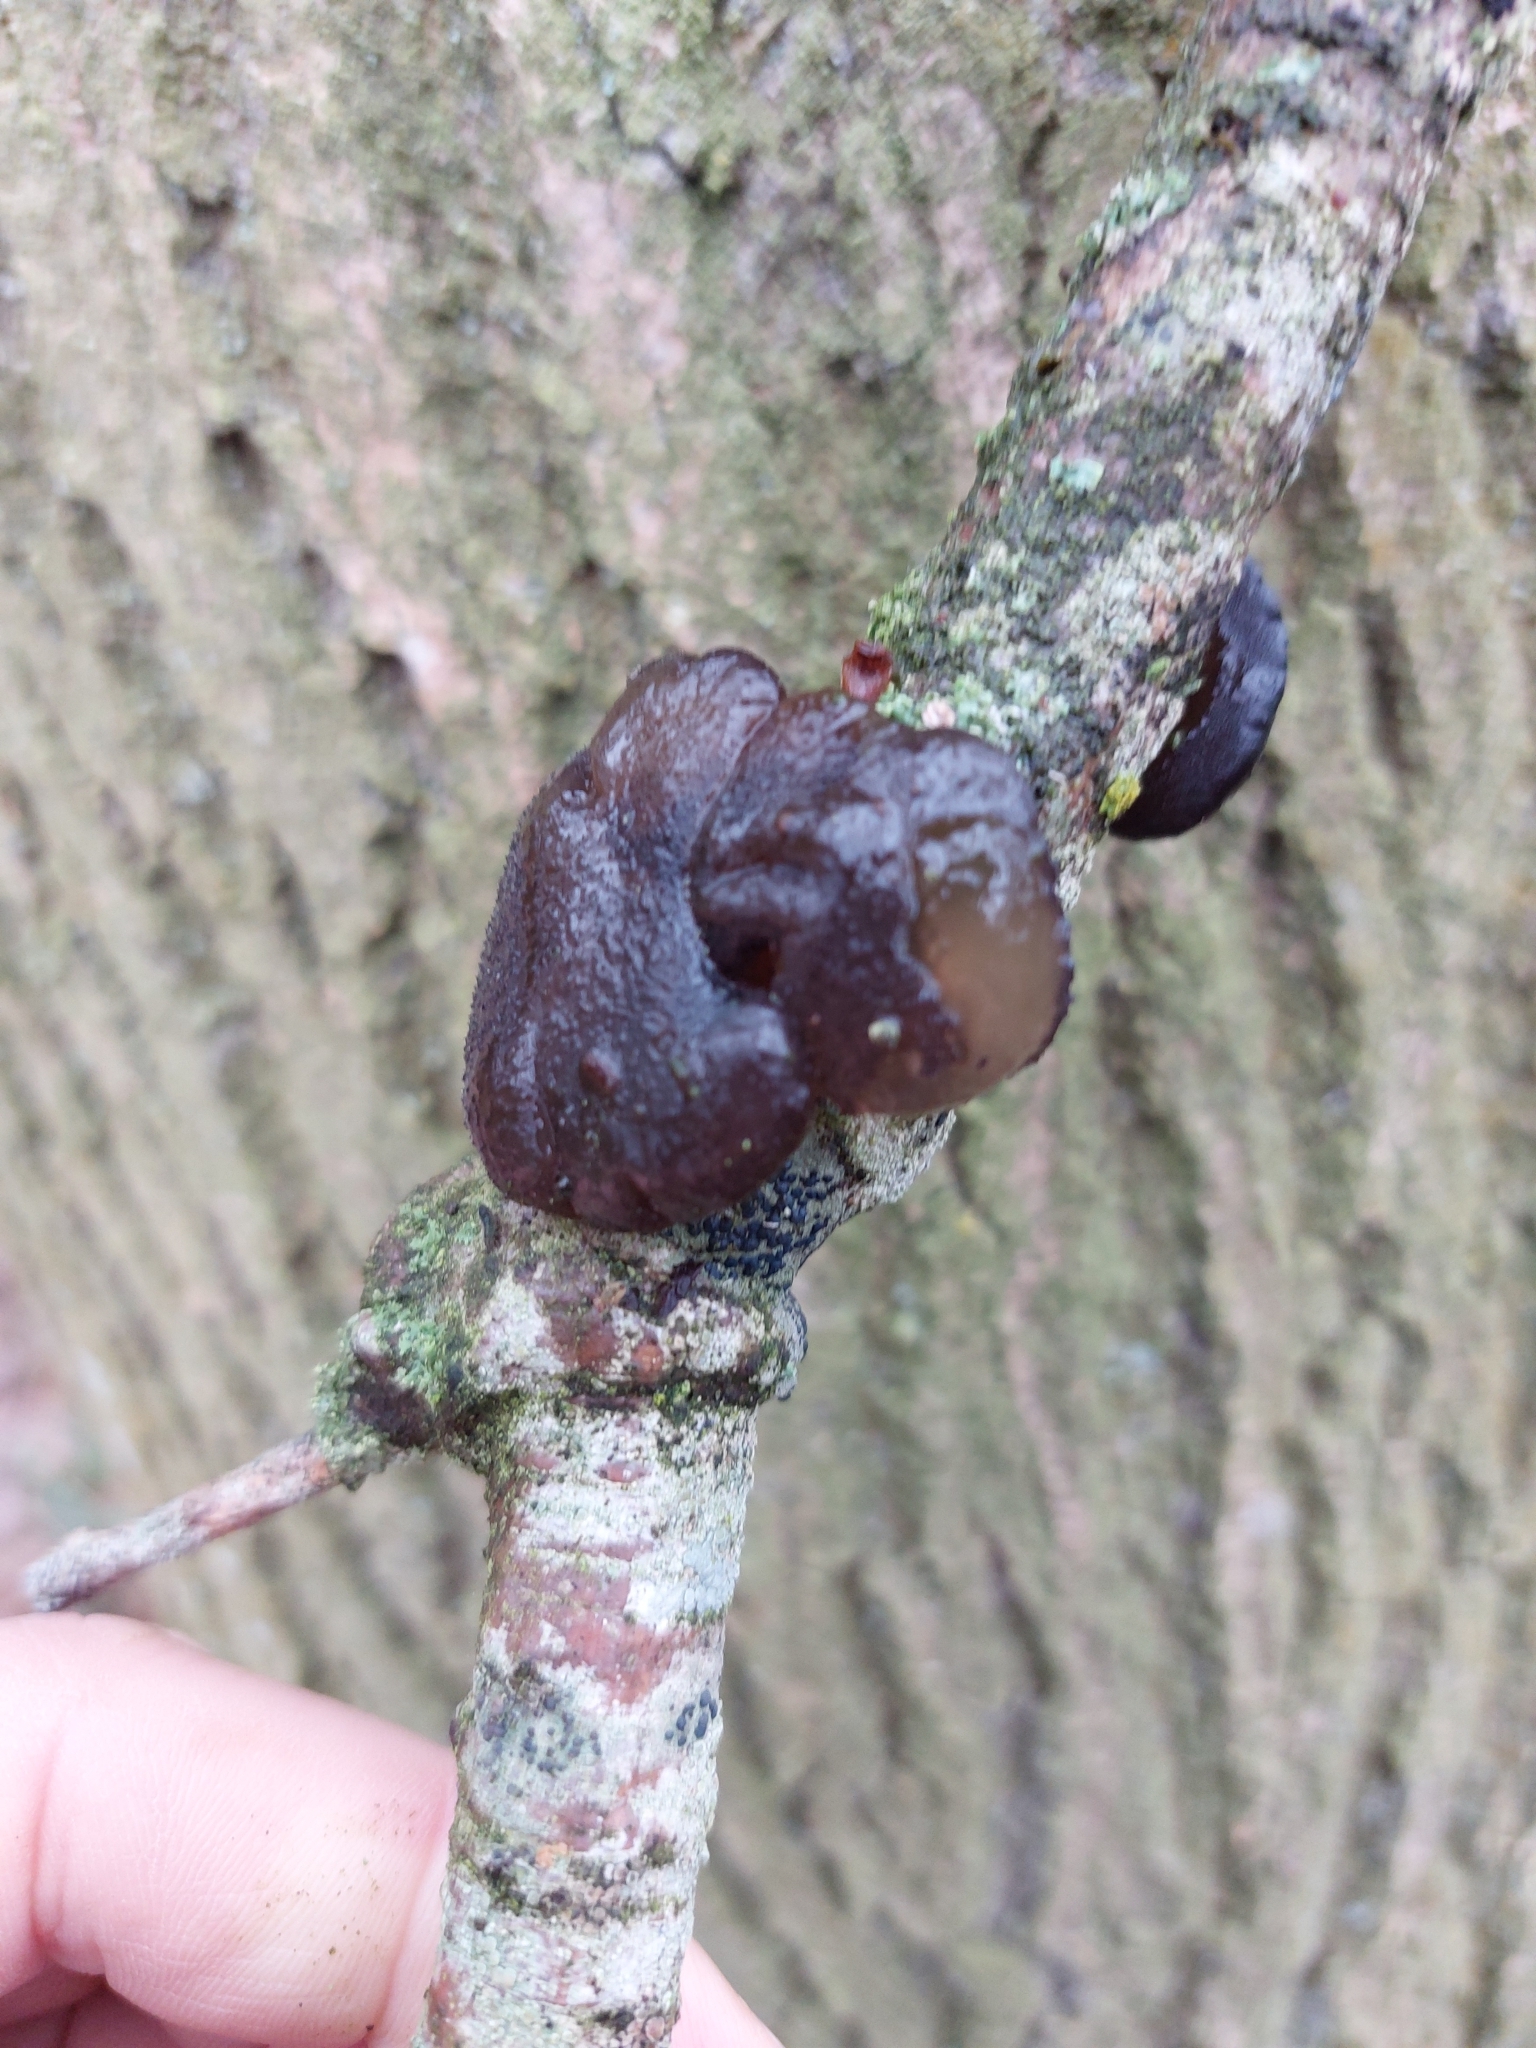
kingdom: Fungi
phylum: Basidiomycota
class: Agaricomycetes
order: Auriculariales
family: Auriculariaceae
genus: Exidia
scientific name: Exidia glandulosa
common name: Witches' butter
